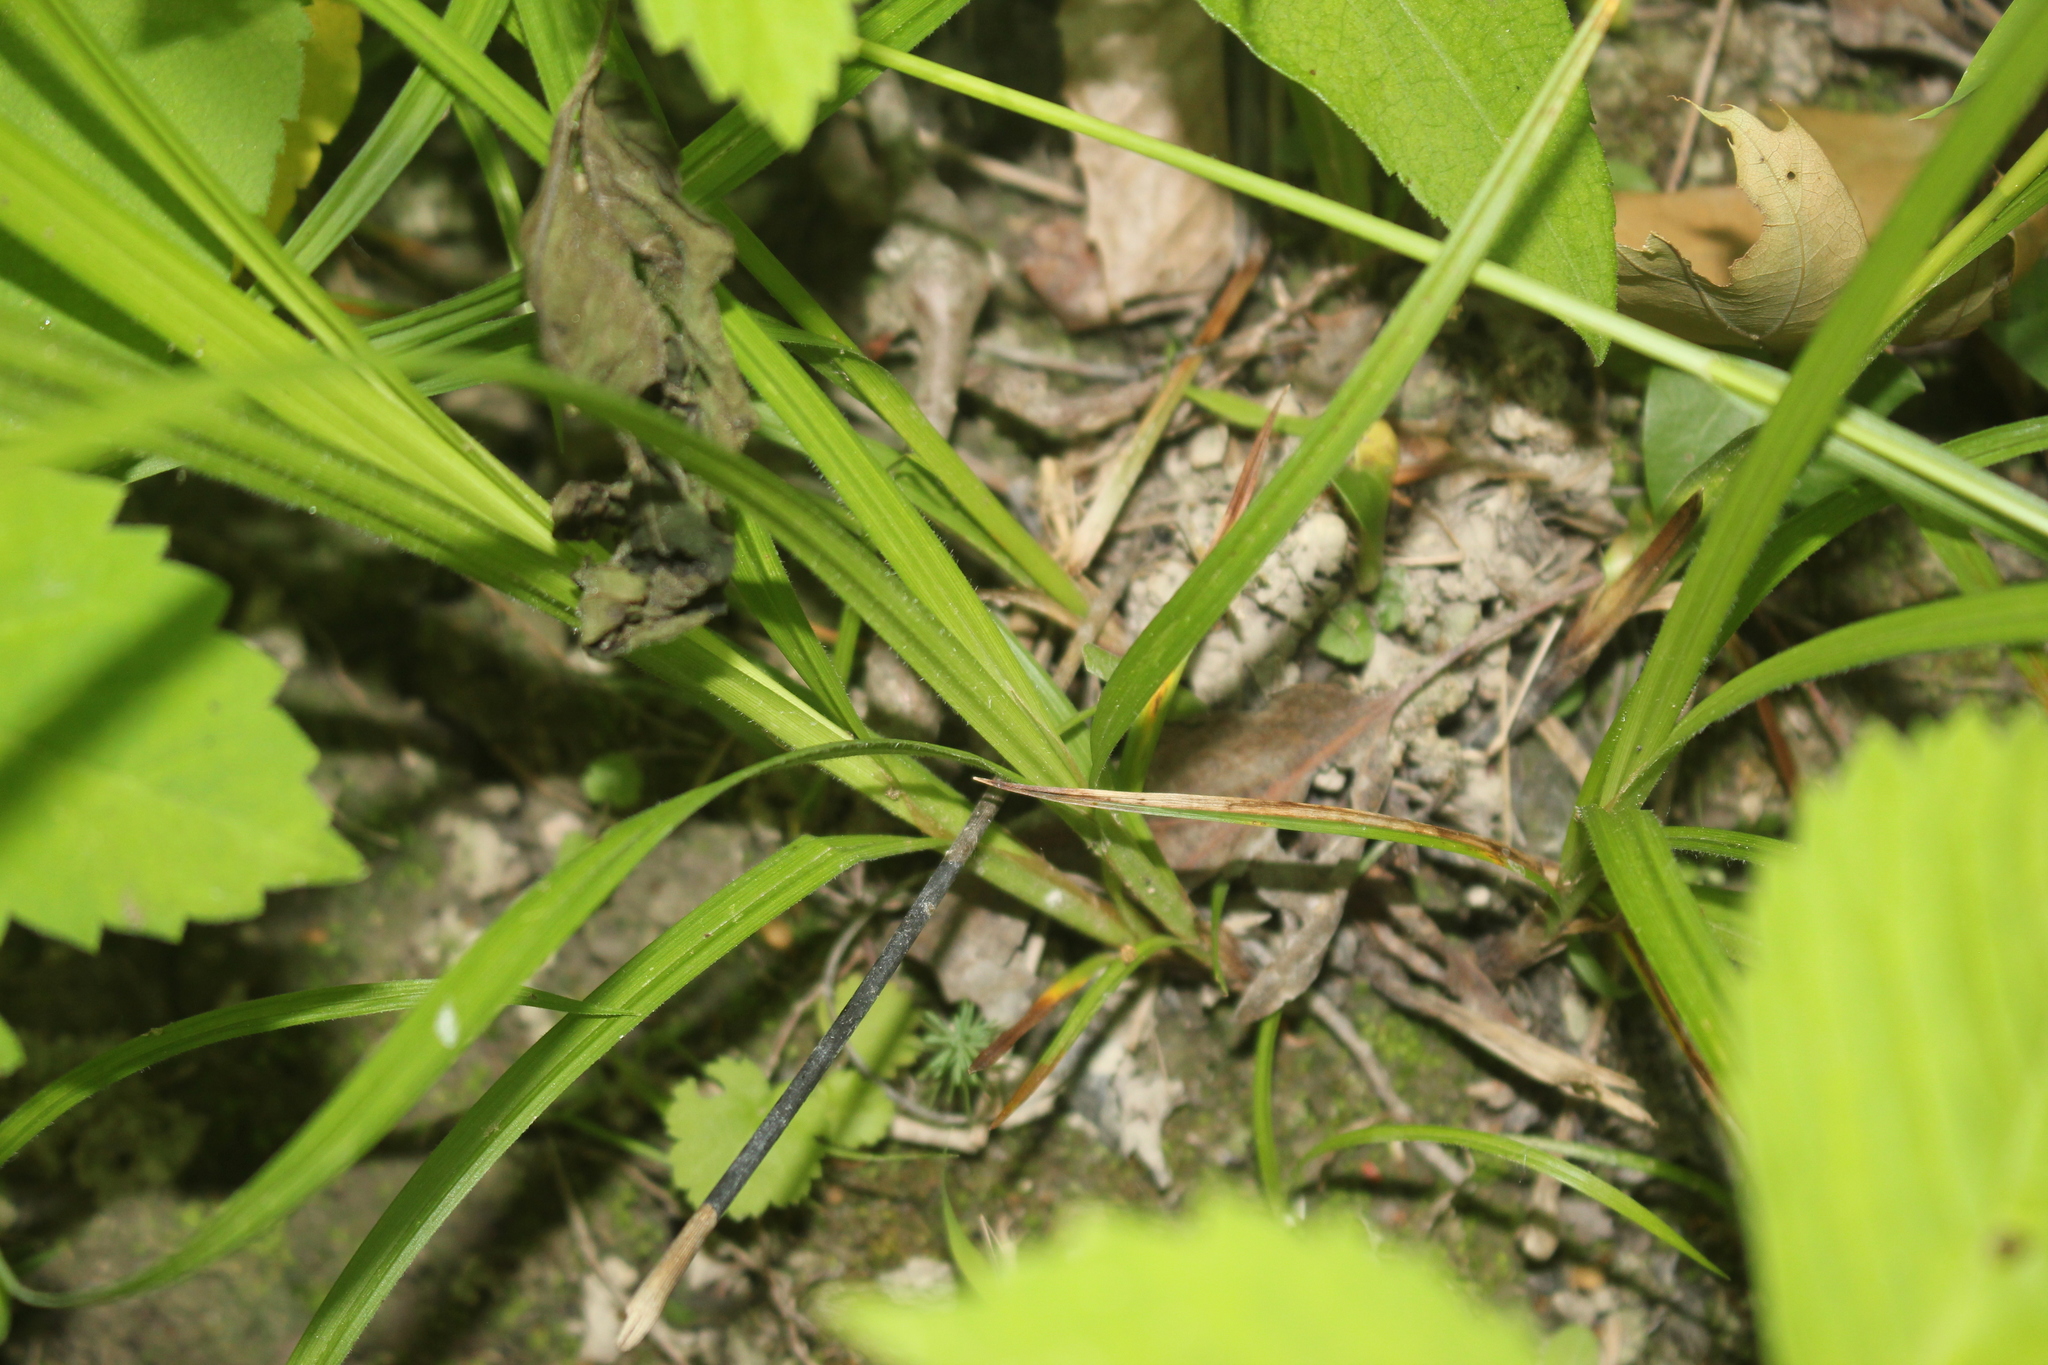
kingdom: Plantae
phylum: Tracheophyta
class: Liliopsida
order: Poales
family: Cyperaceae
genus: Carex
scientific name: Carex formosa
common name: Awnless graceful sedge
